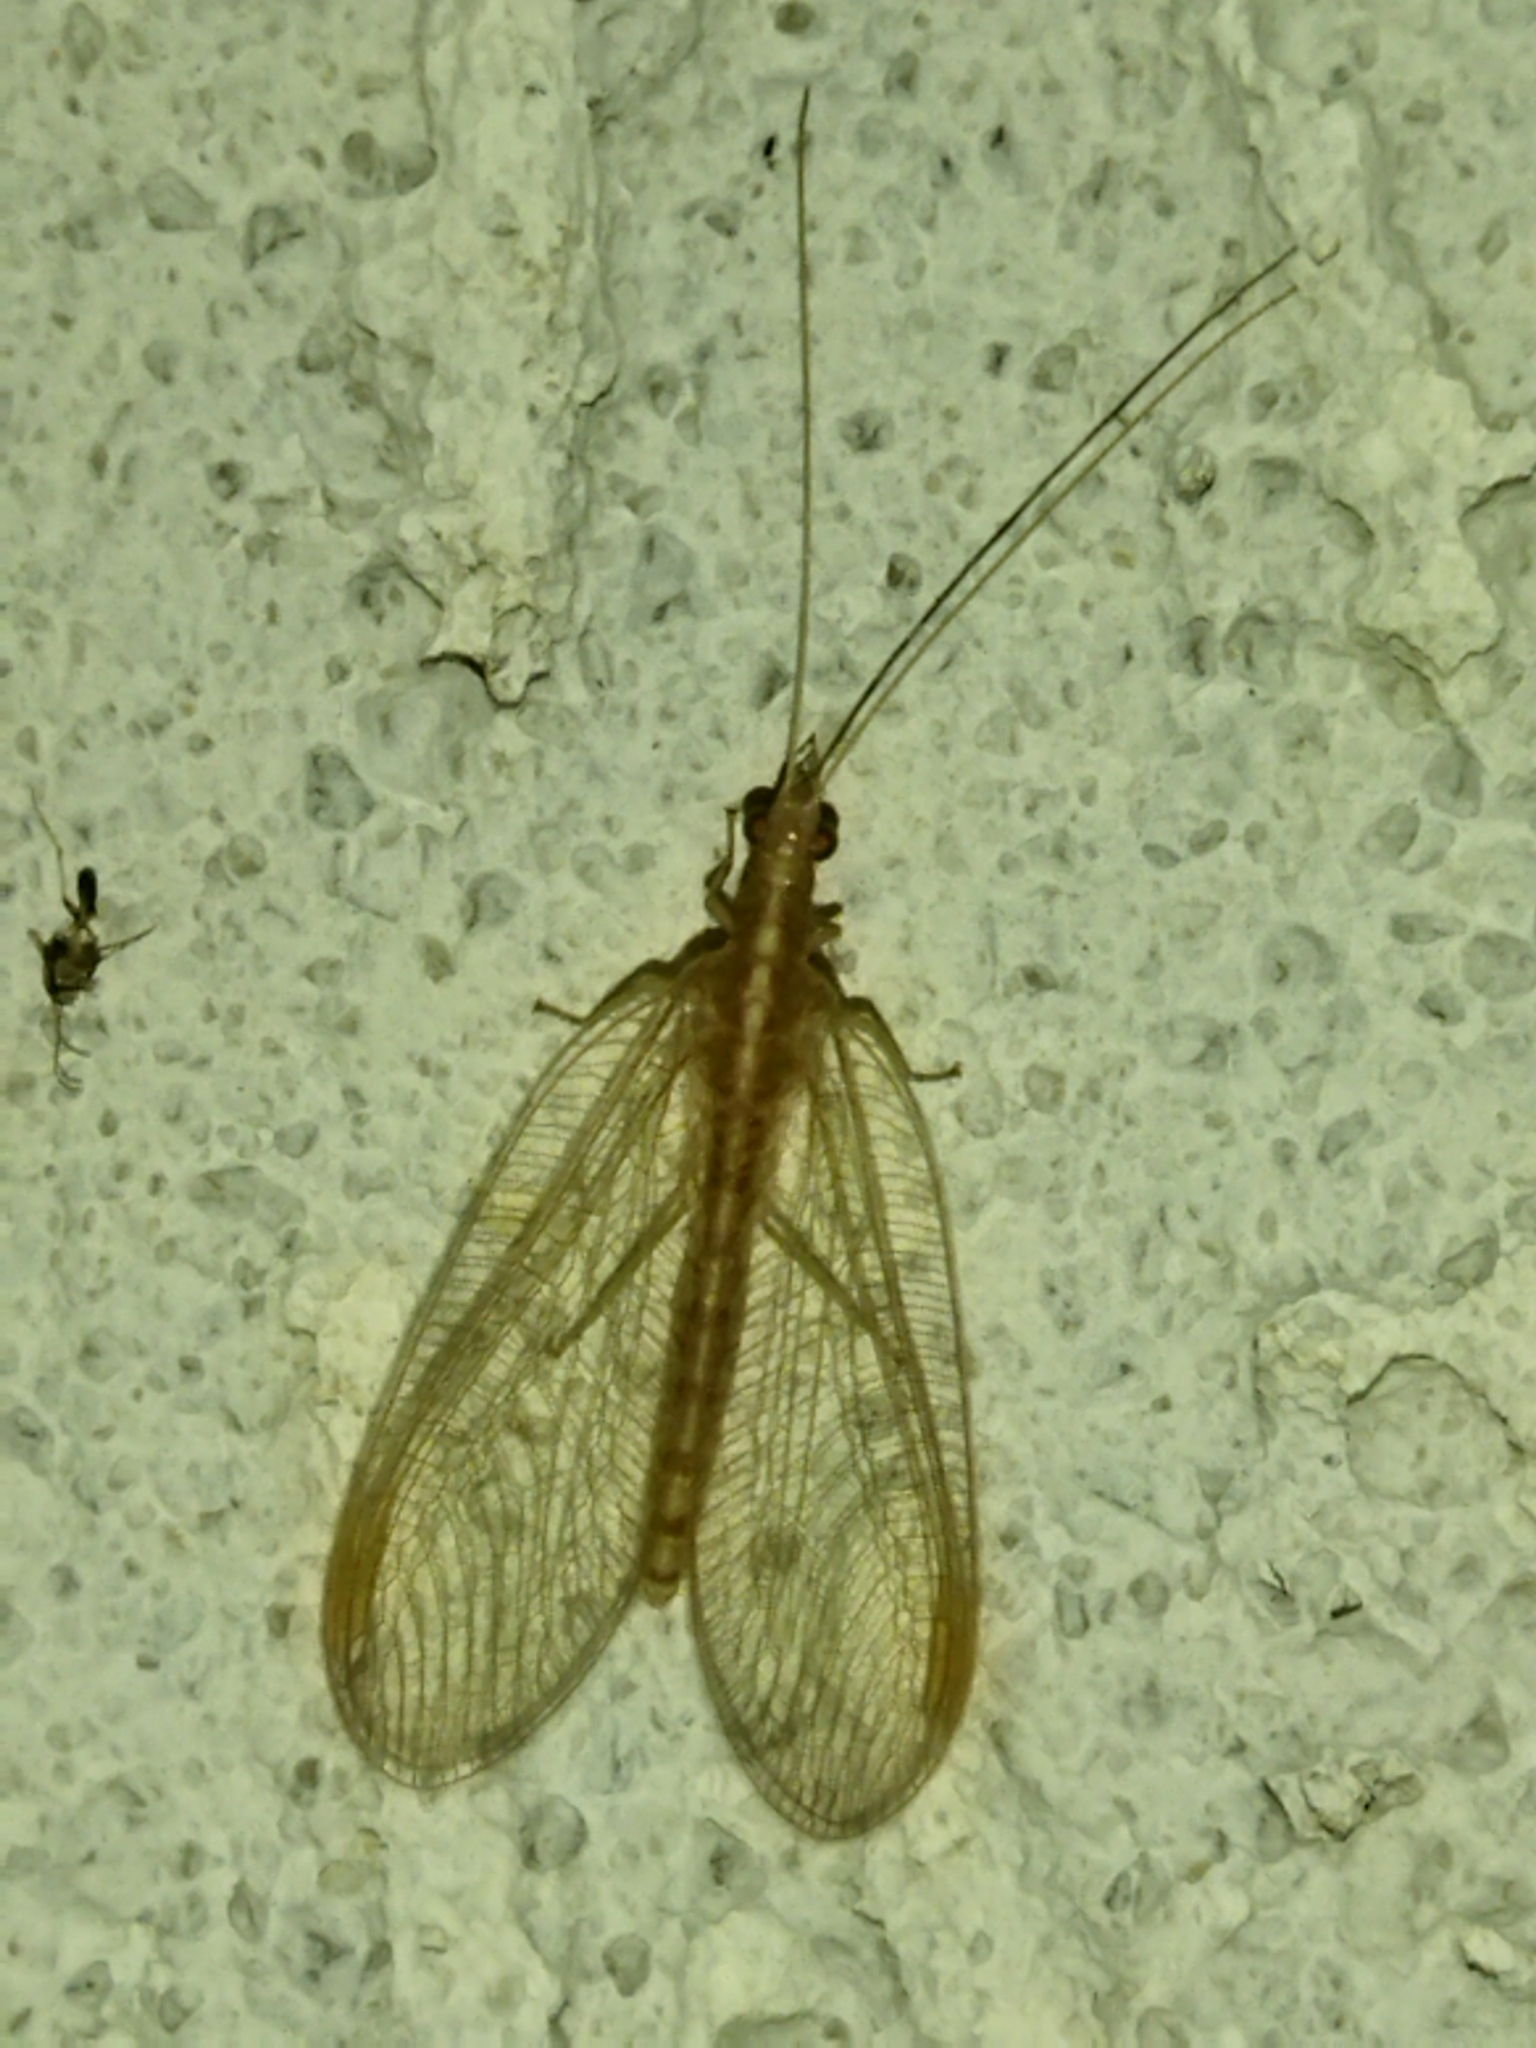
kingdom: Animalia
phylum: Arthropoda
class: Insecta
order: Neuroptera
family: Chrysopidae
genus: Chrysoperla
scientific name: Chrysoperla
